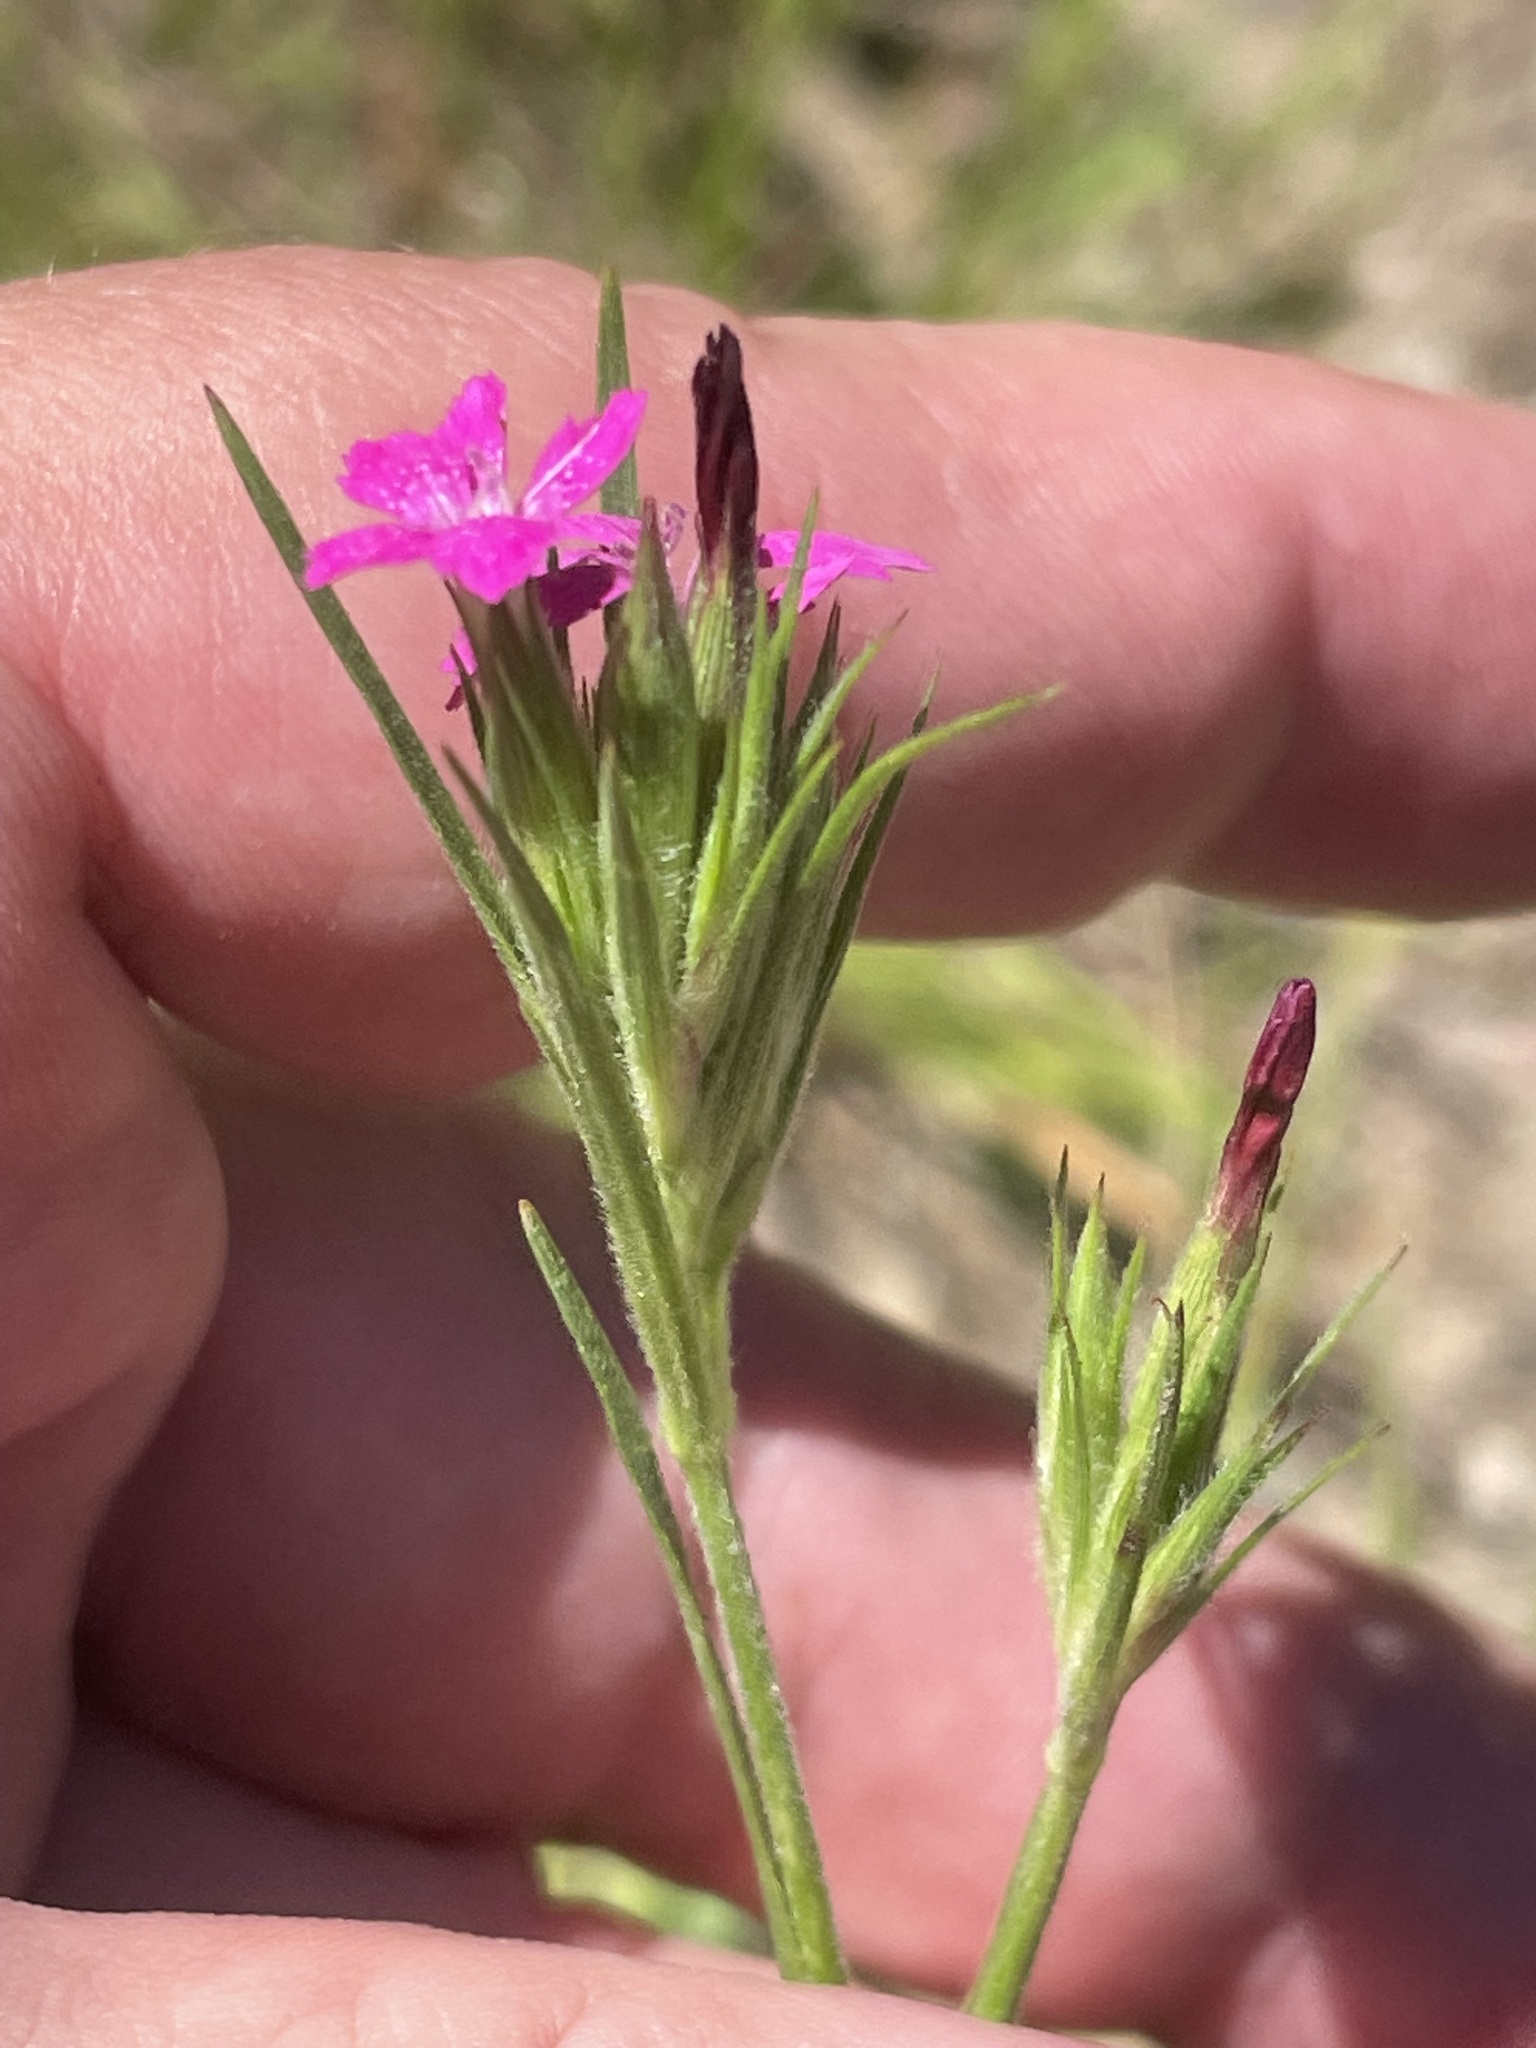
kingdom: Plantae
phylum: Tracheophyta
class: Magnoliopsida
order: Caryophyllales
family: Caryophyllaceae
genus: Dianthus
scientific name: Dianthus armeria
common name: Deptford pink
